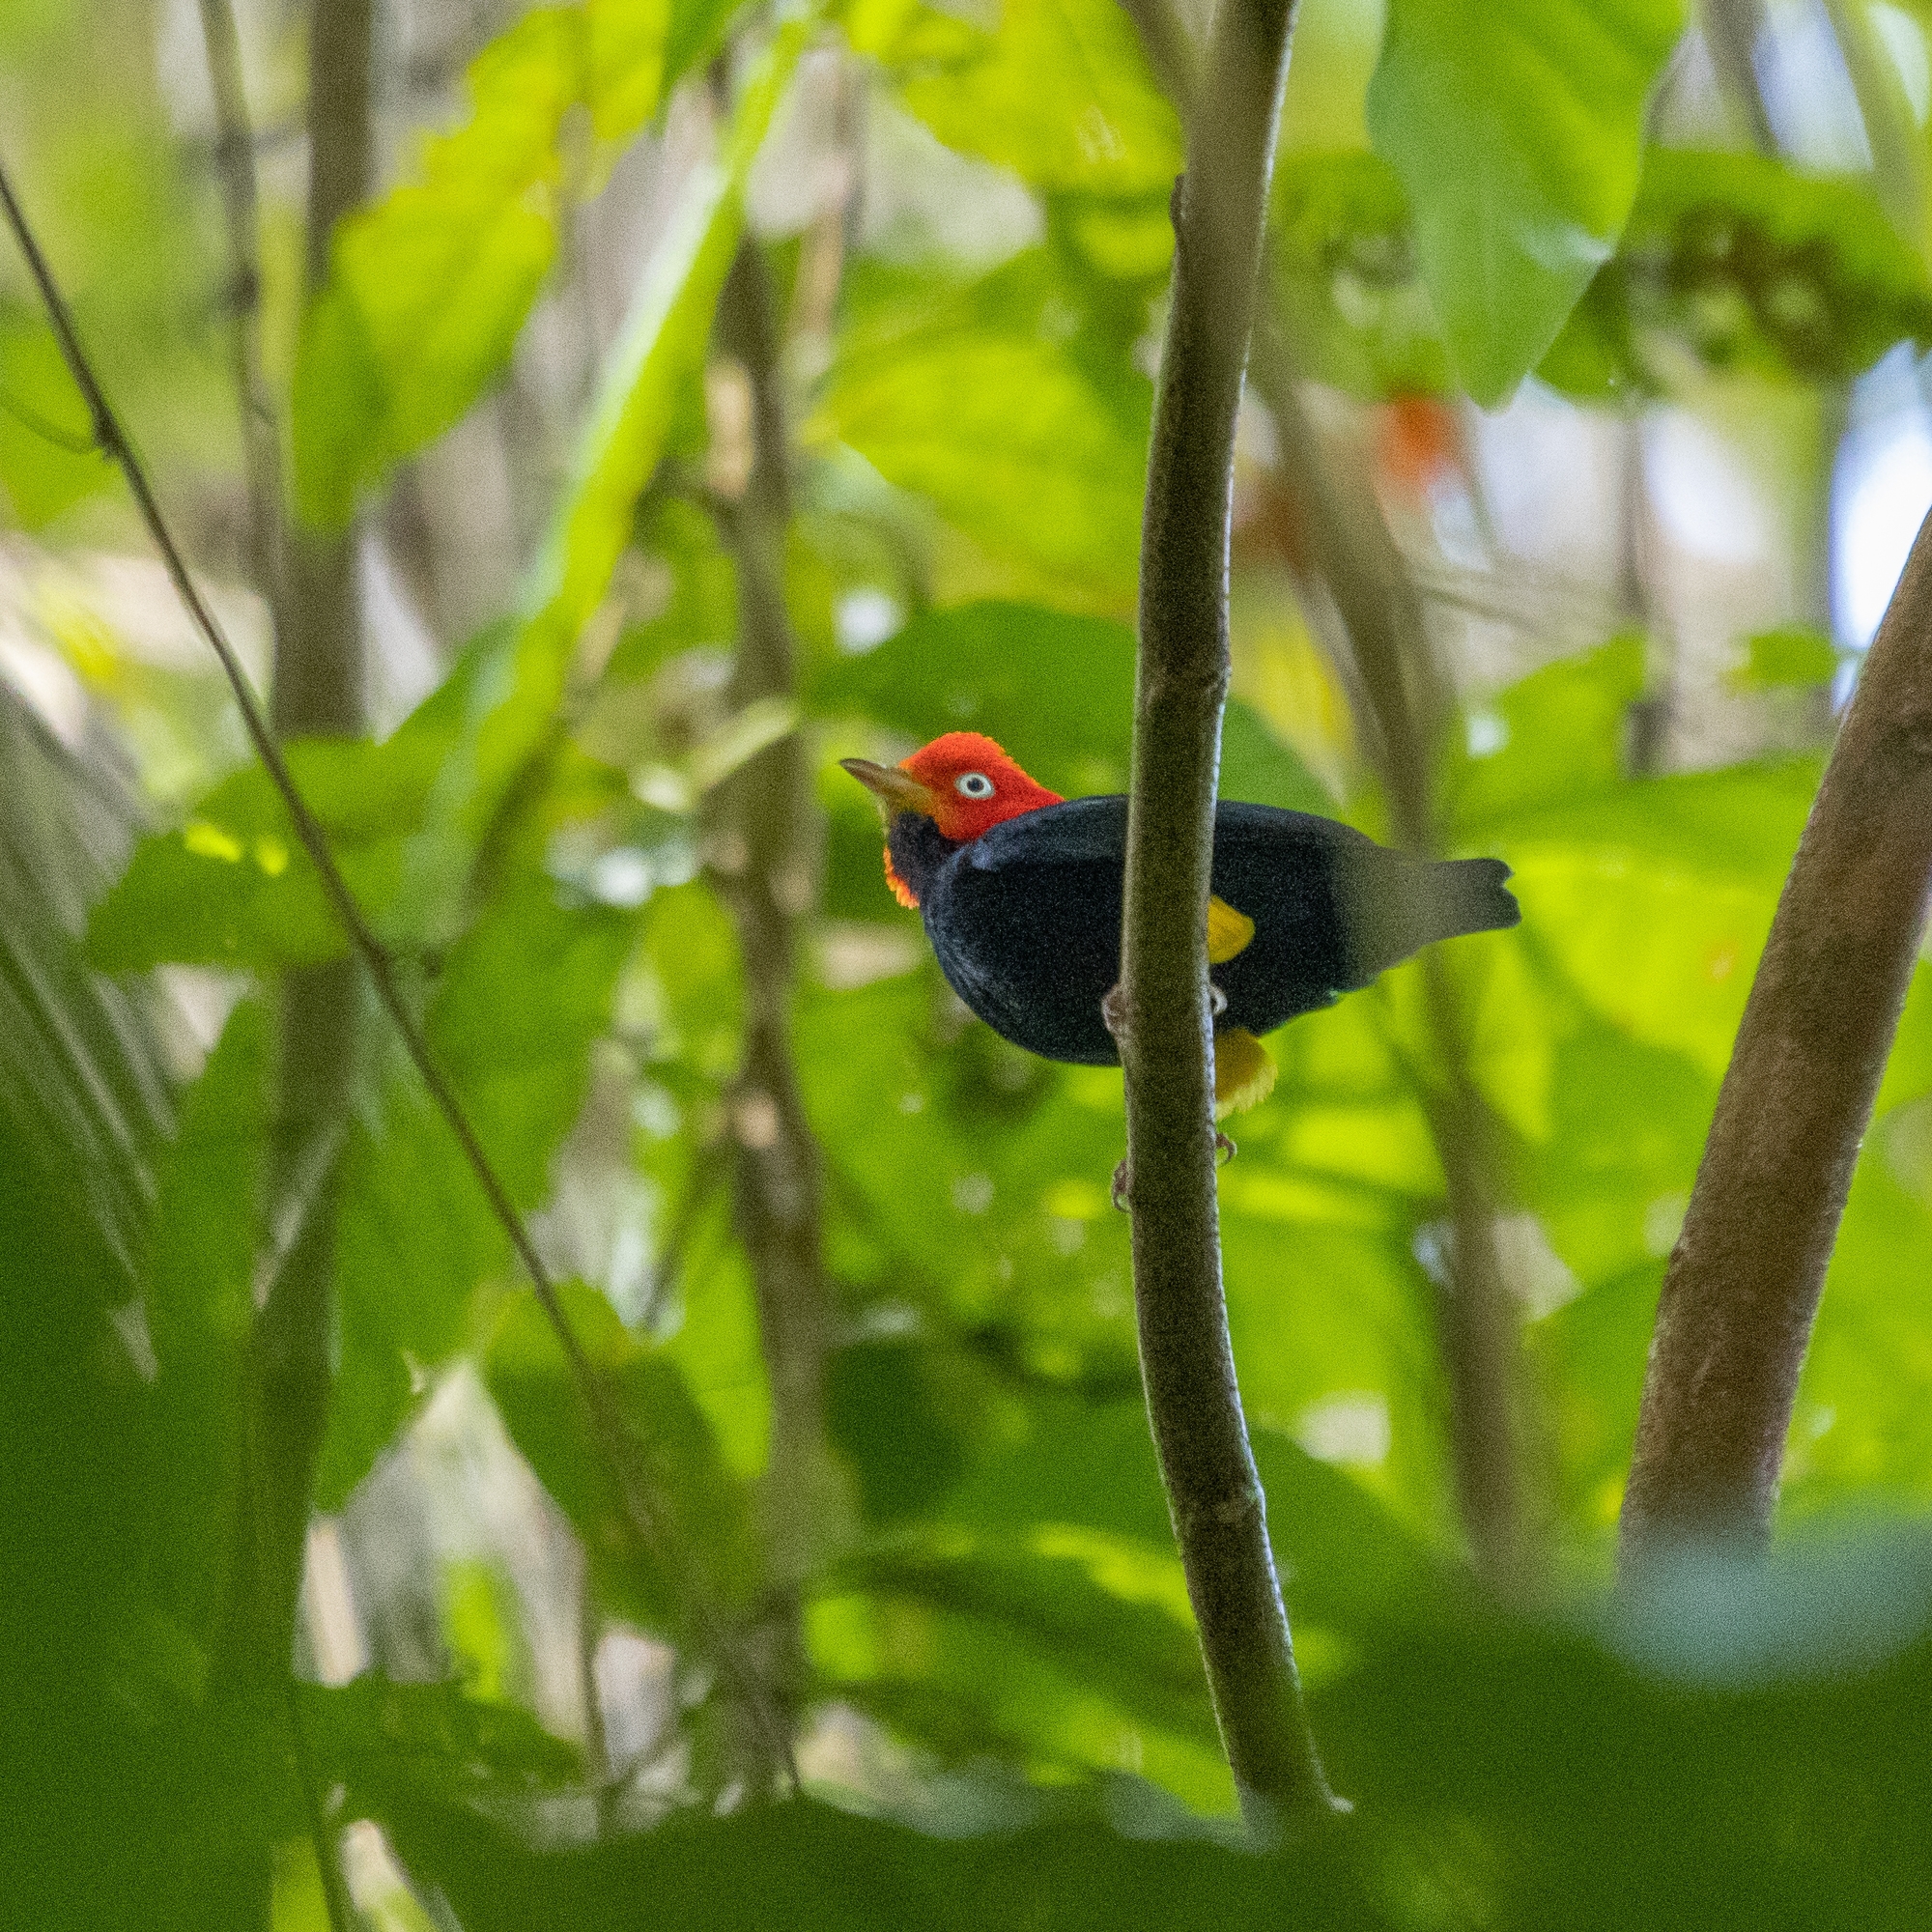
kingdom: Animalia
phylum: Chordata
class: Aves
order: Passeriformes
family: Pipridae
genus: Pipra
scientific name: Pipra mentalis
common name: Red-capped manakin
